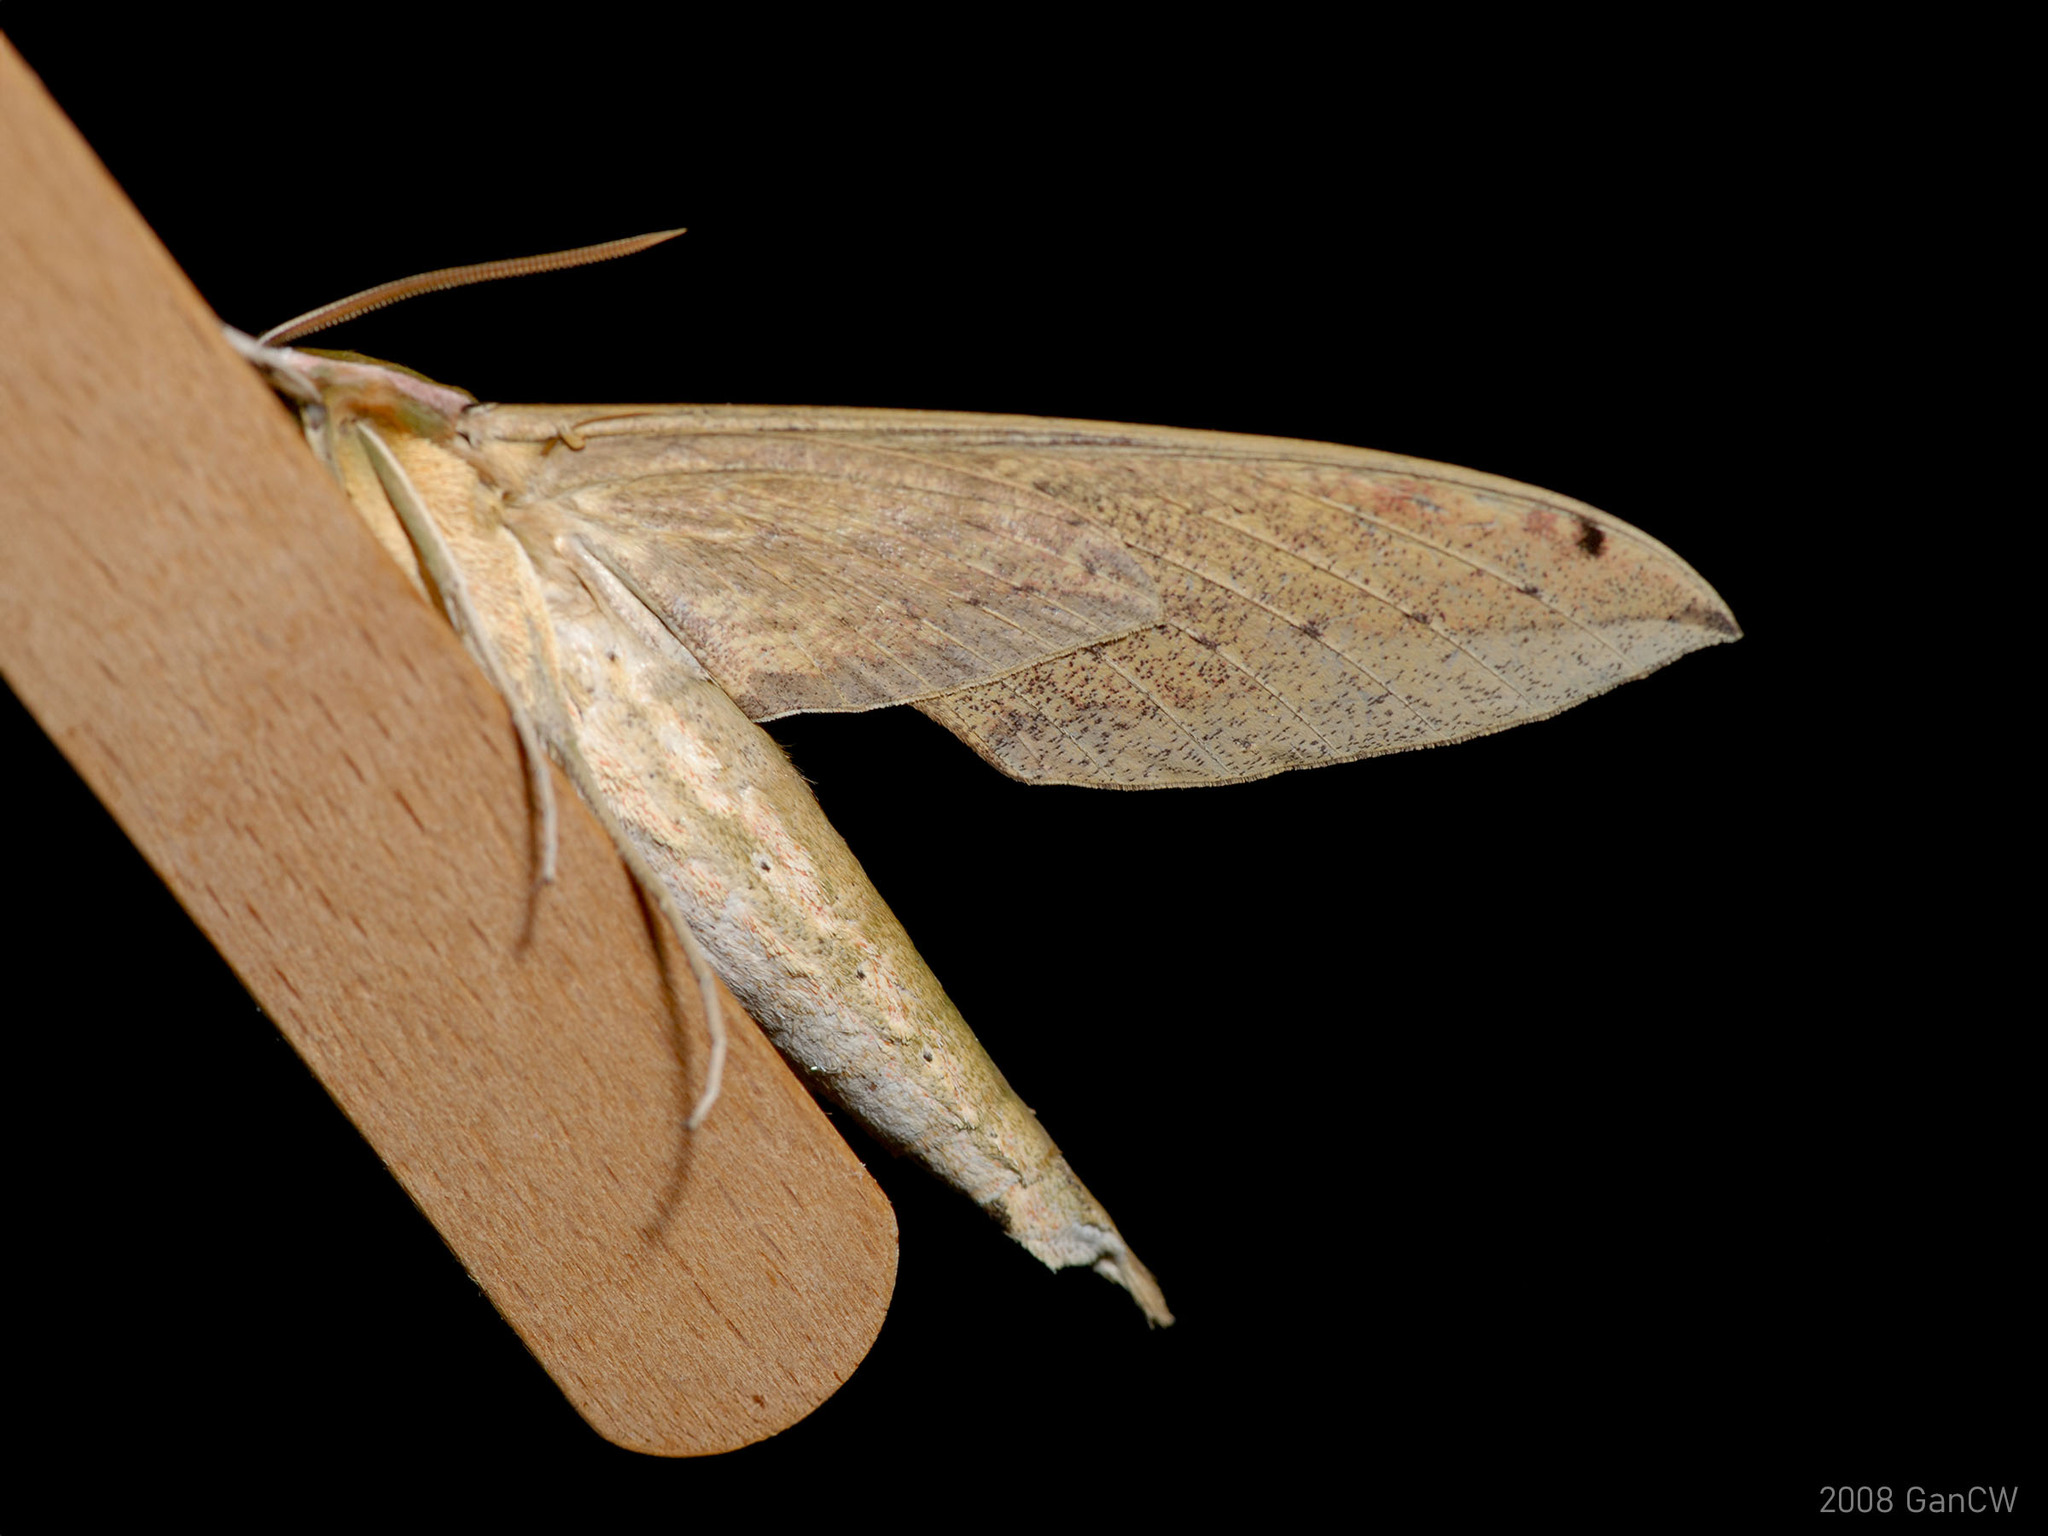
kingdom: Animalia
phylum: Arthropoda
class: Insecta
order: Lepidoptera
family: Sphingidae
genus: Cechetra
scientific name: Cechetra lineosa
